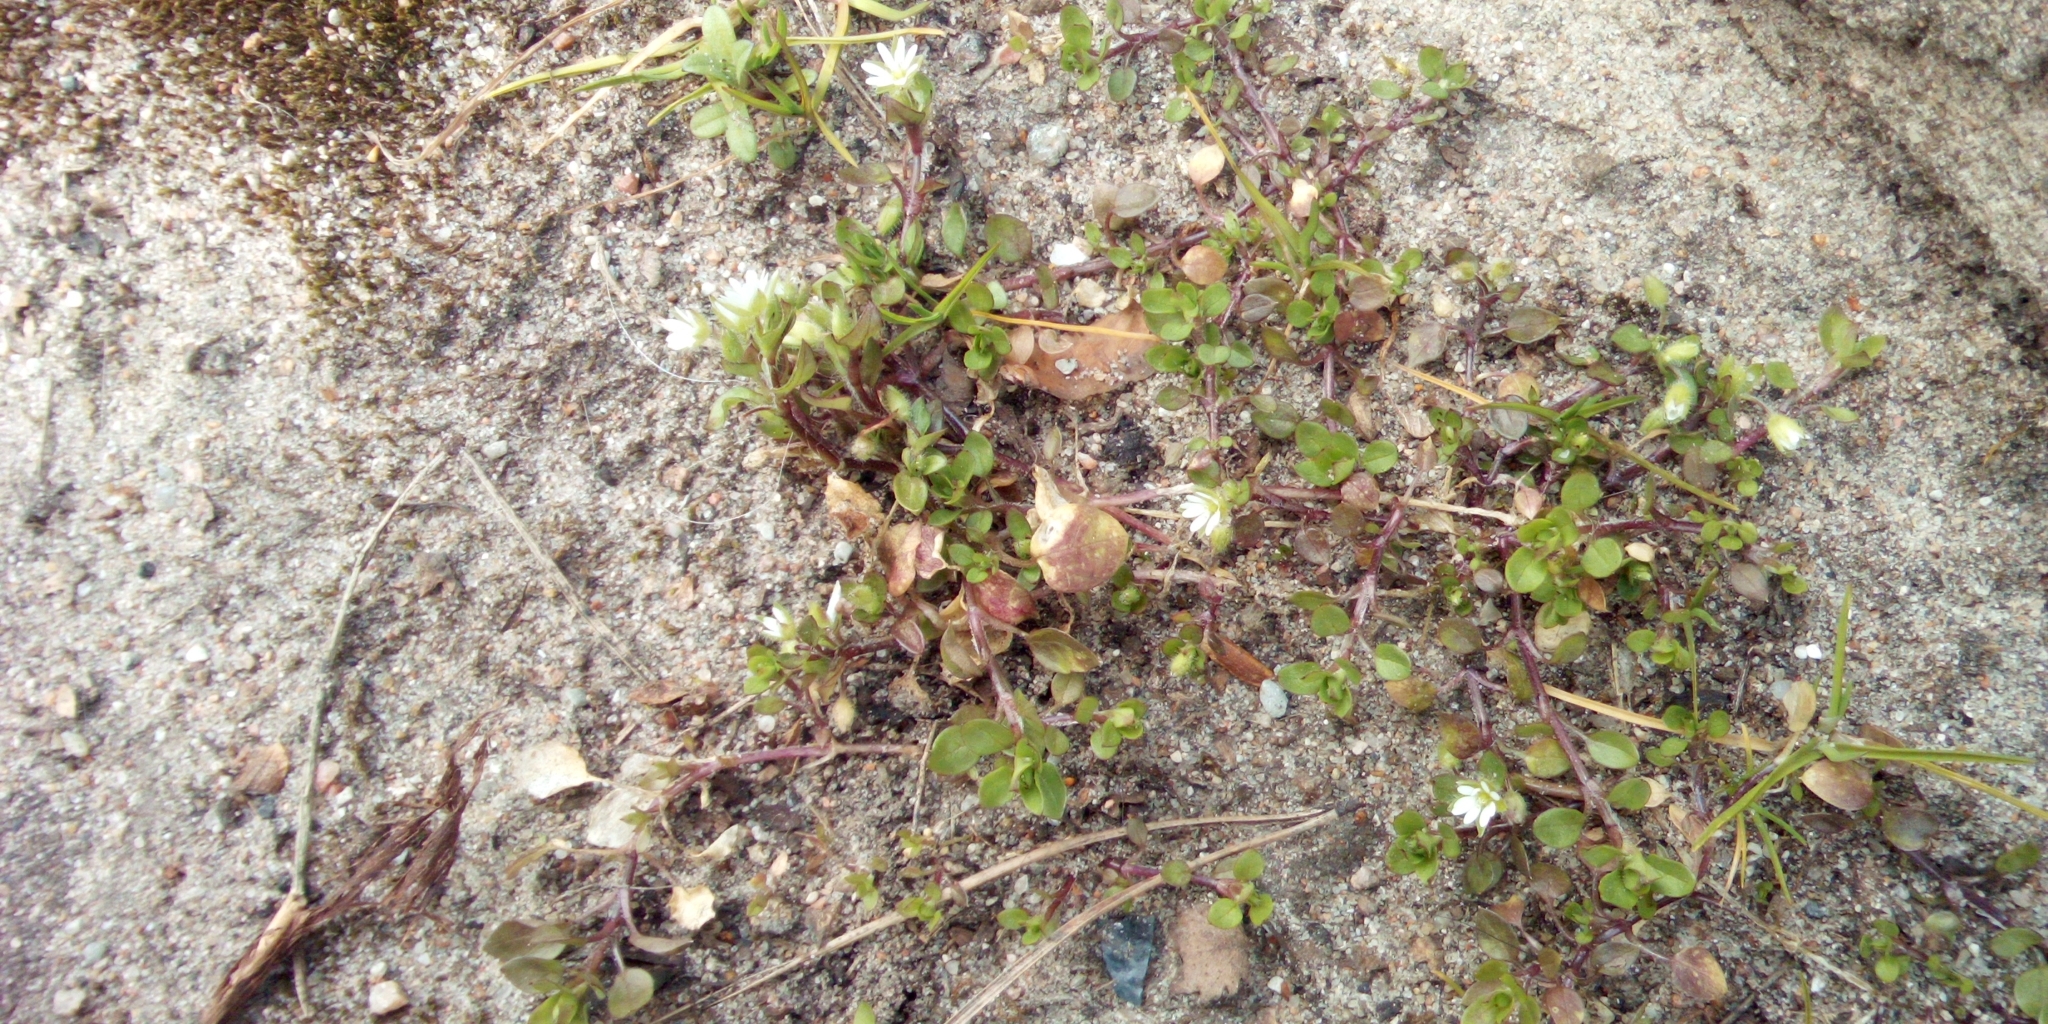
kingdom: Plantae
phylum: Tracheophyta
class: Magnoliopsida
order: Caryophyllales
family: Caryophyllaceae
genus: Stellaria
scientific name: Stellaria media
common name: Common chickweed
